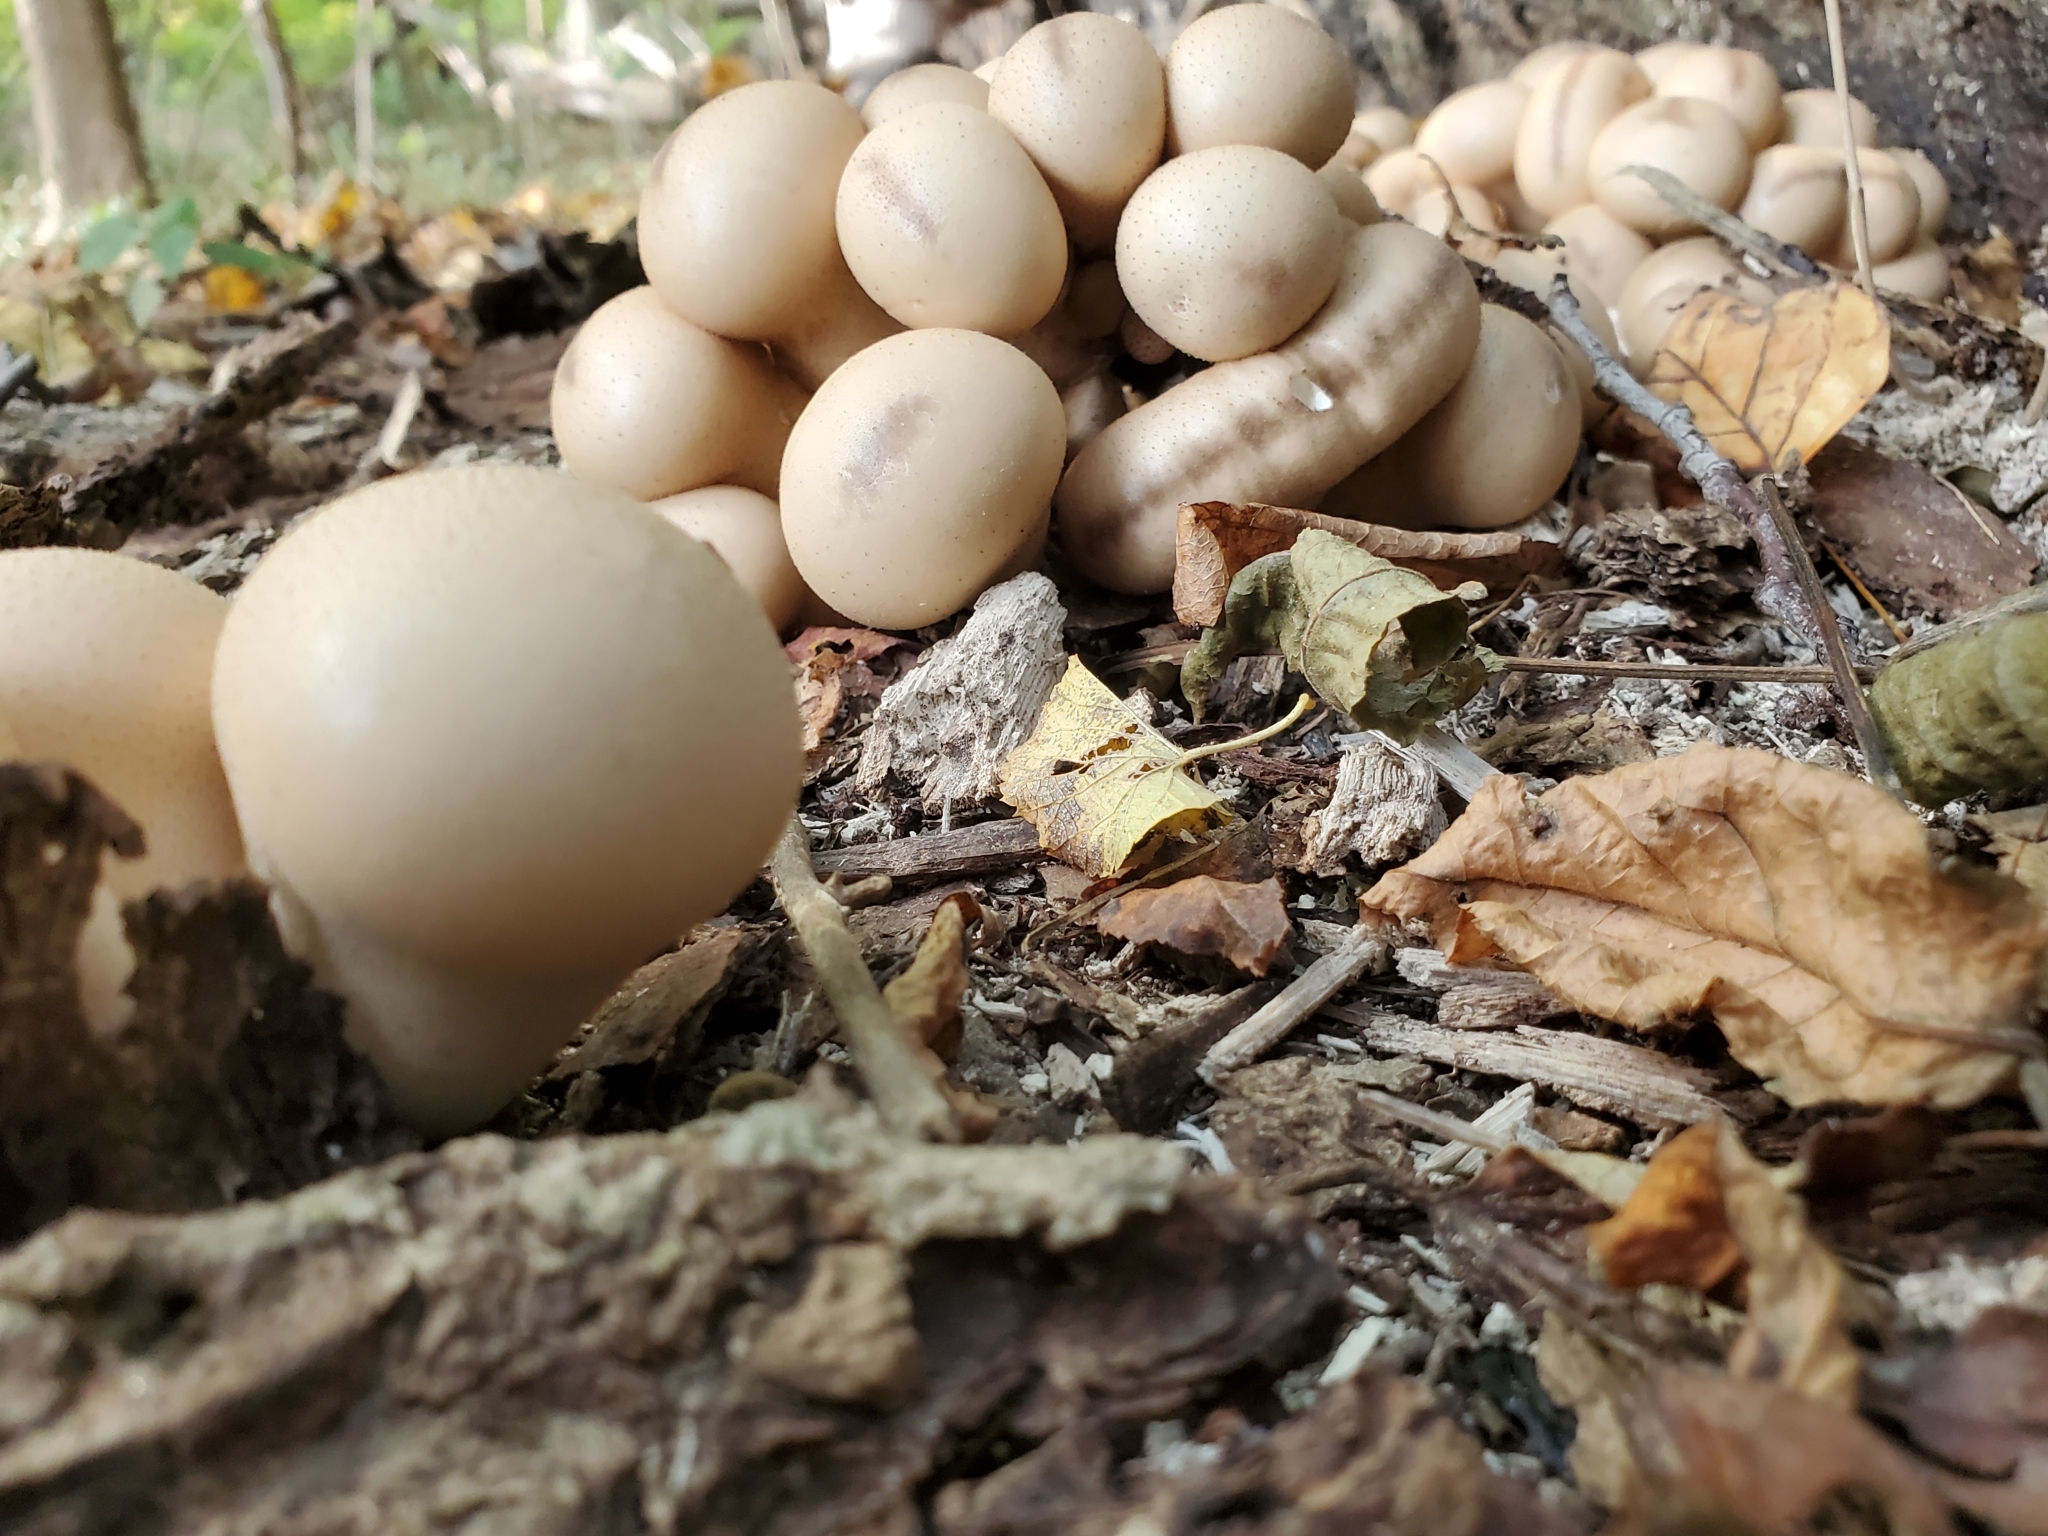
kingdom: Fungi
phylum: Basidiomycota
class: Agaricomycetes
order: Agaricales
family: Lycoperdaceae
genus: Apioperdon
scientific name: Apioperdon pyriforme
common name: Pear-shaped puffball
